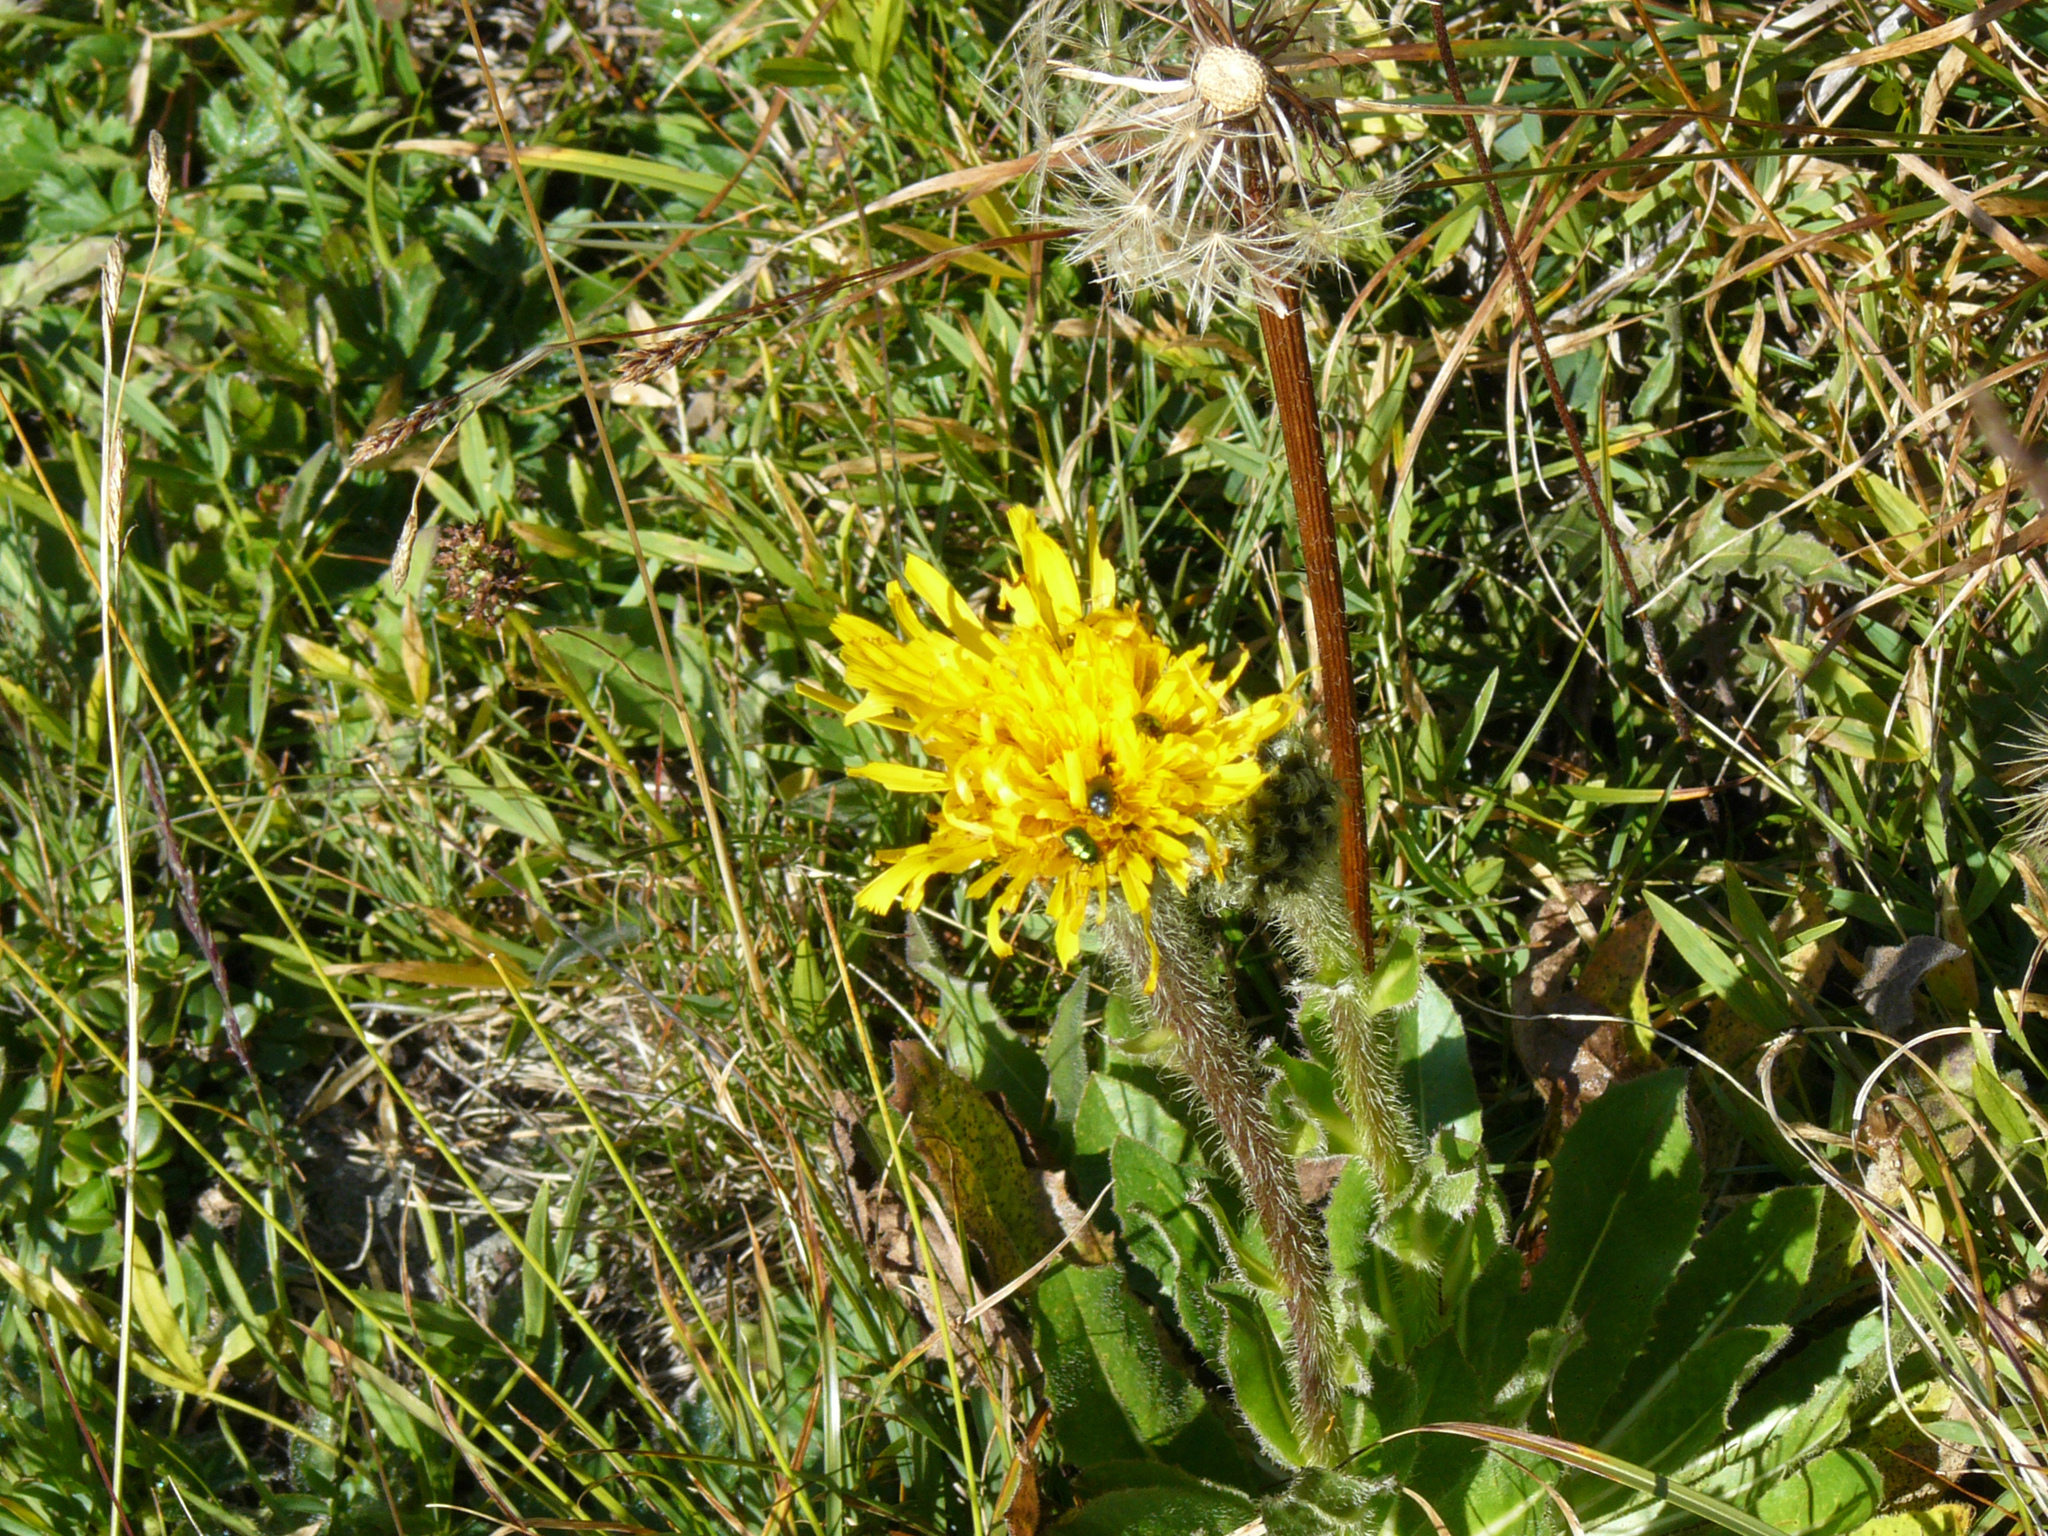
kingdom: Plantae
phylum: Tracheophyta
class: Magnoliopsida
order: Asterales
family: Asteraceae
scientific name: Asteraceae
